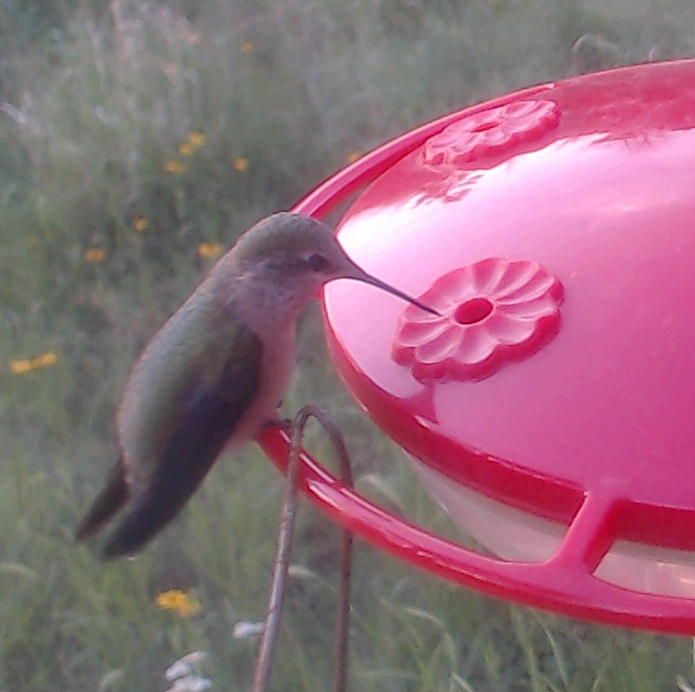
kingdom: Animalia
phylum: Chordata
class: Aves
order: Apodiformes
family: Trochilidae
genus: Selasphorus
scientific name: Selasphorus calliope
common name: Calliope hummingbird
